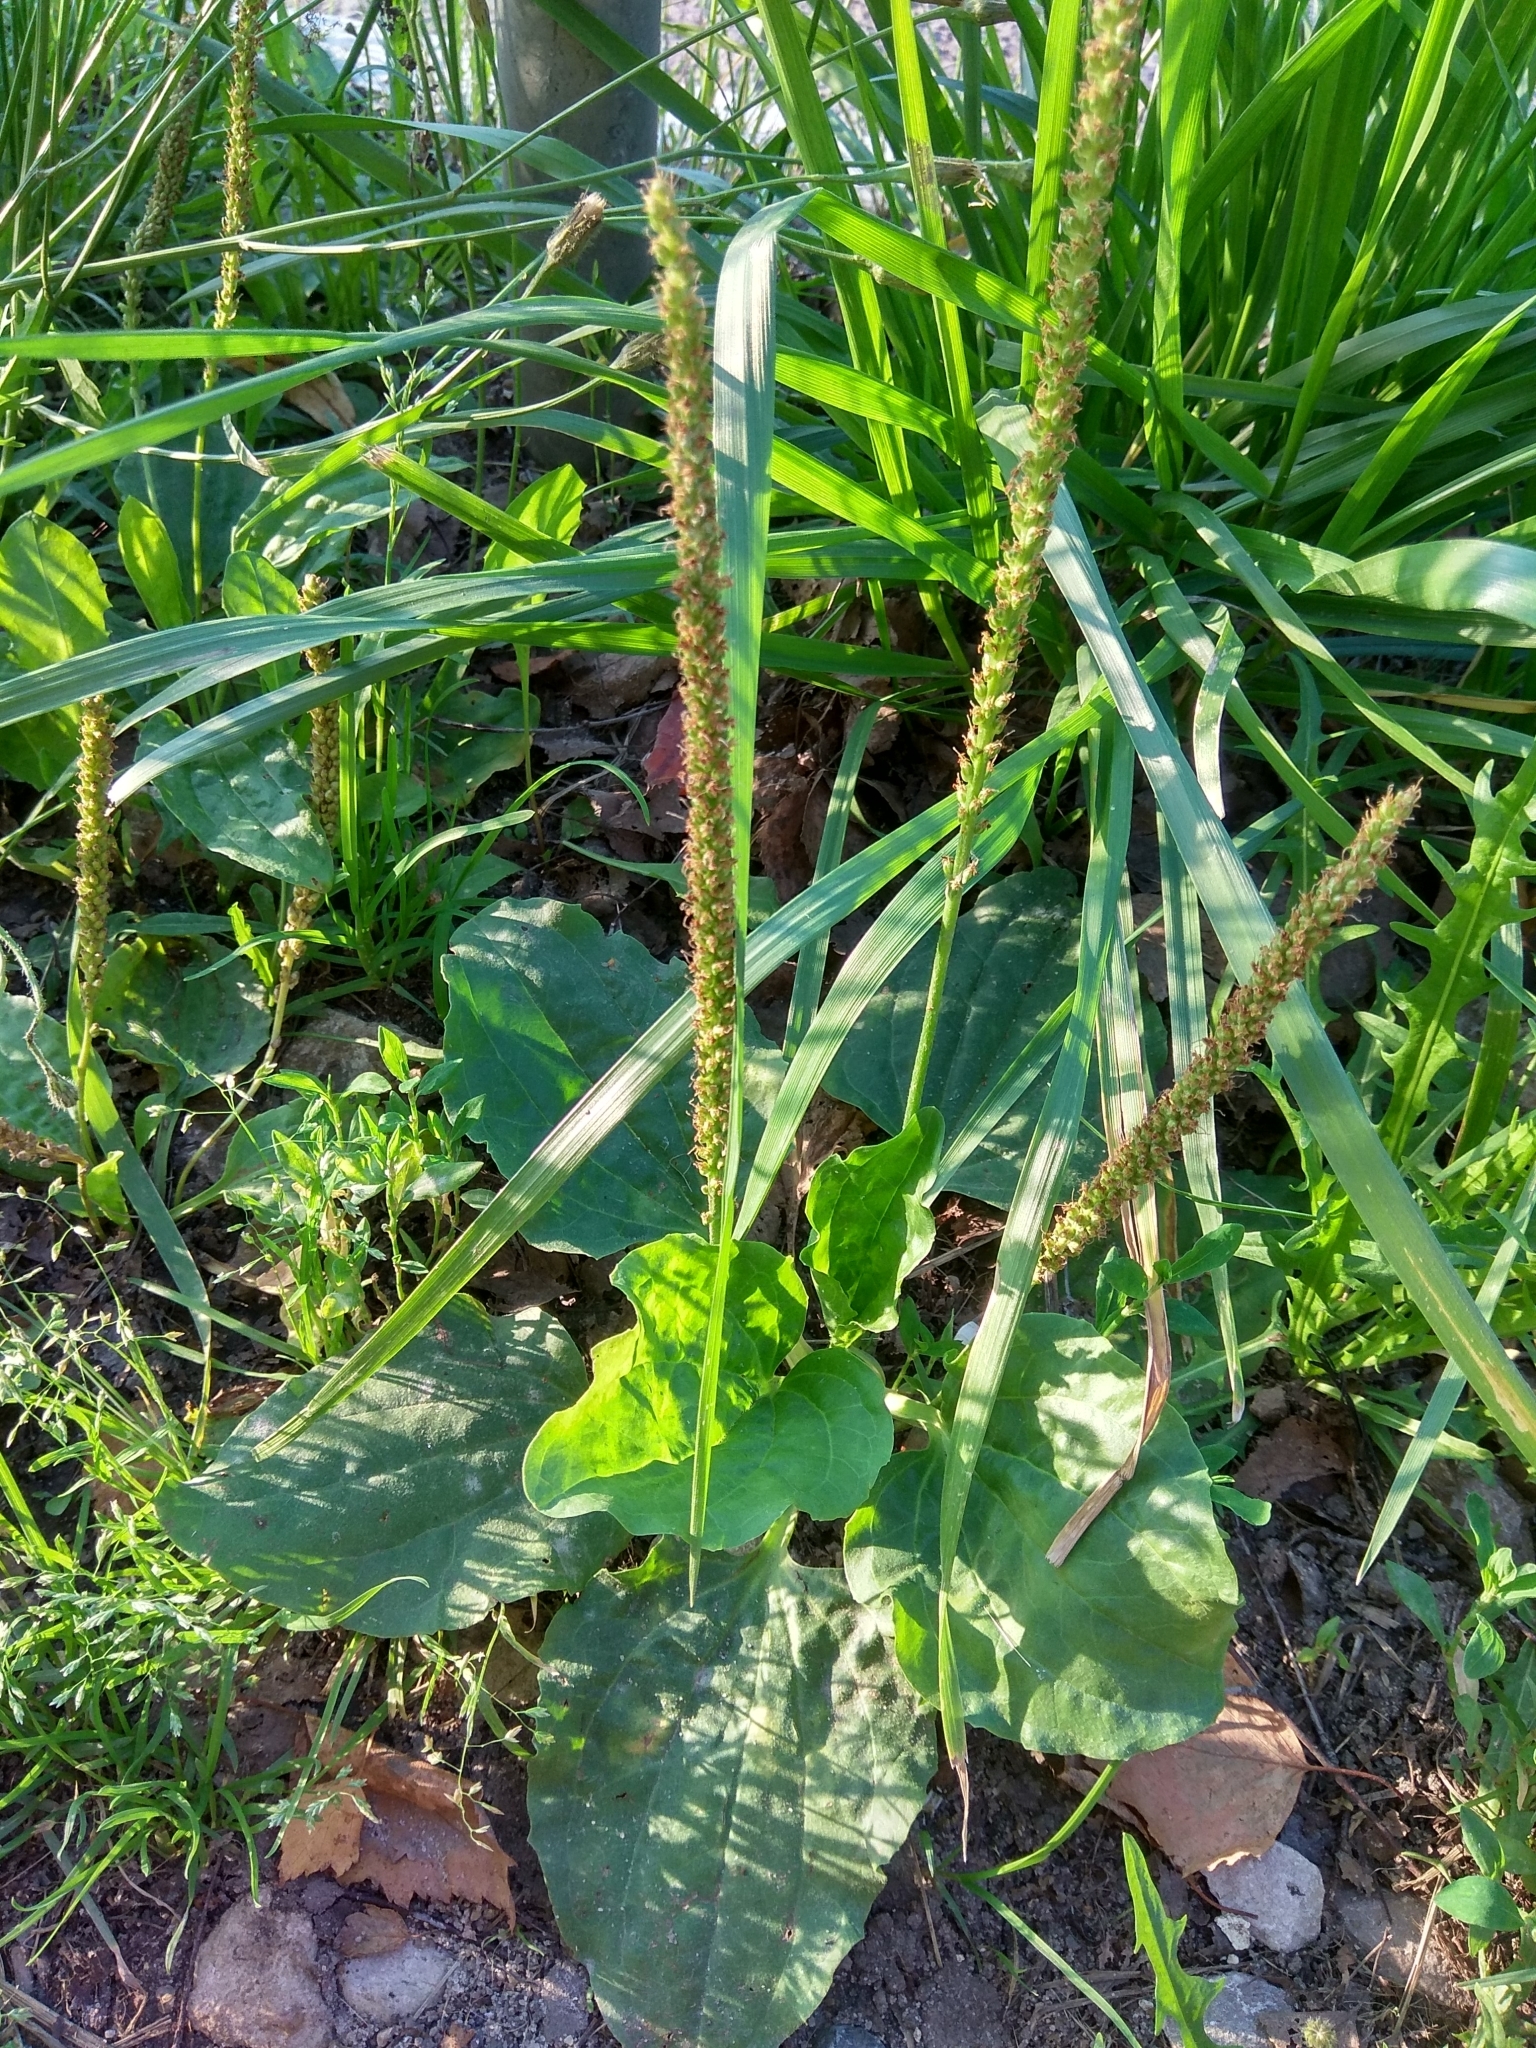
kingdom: Plantae
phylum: Tracheophyta
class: Magnoliopsida
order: Lamiales
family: Plantaginaceae
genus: Plantago
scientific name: Plantago major
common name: Common plantain
